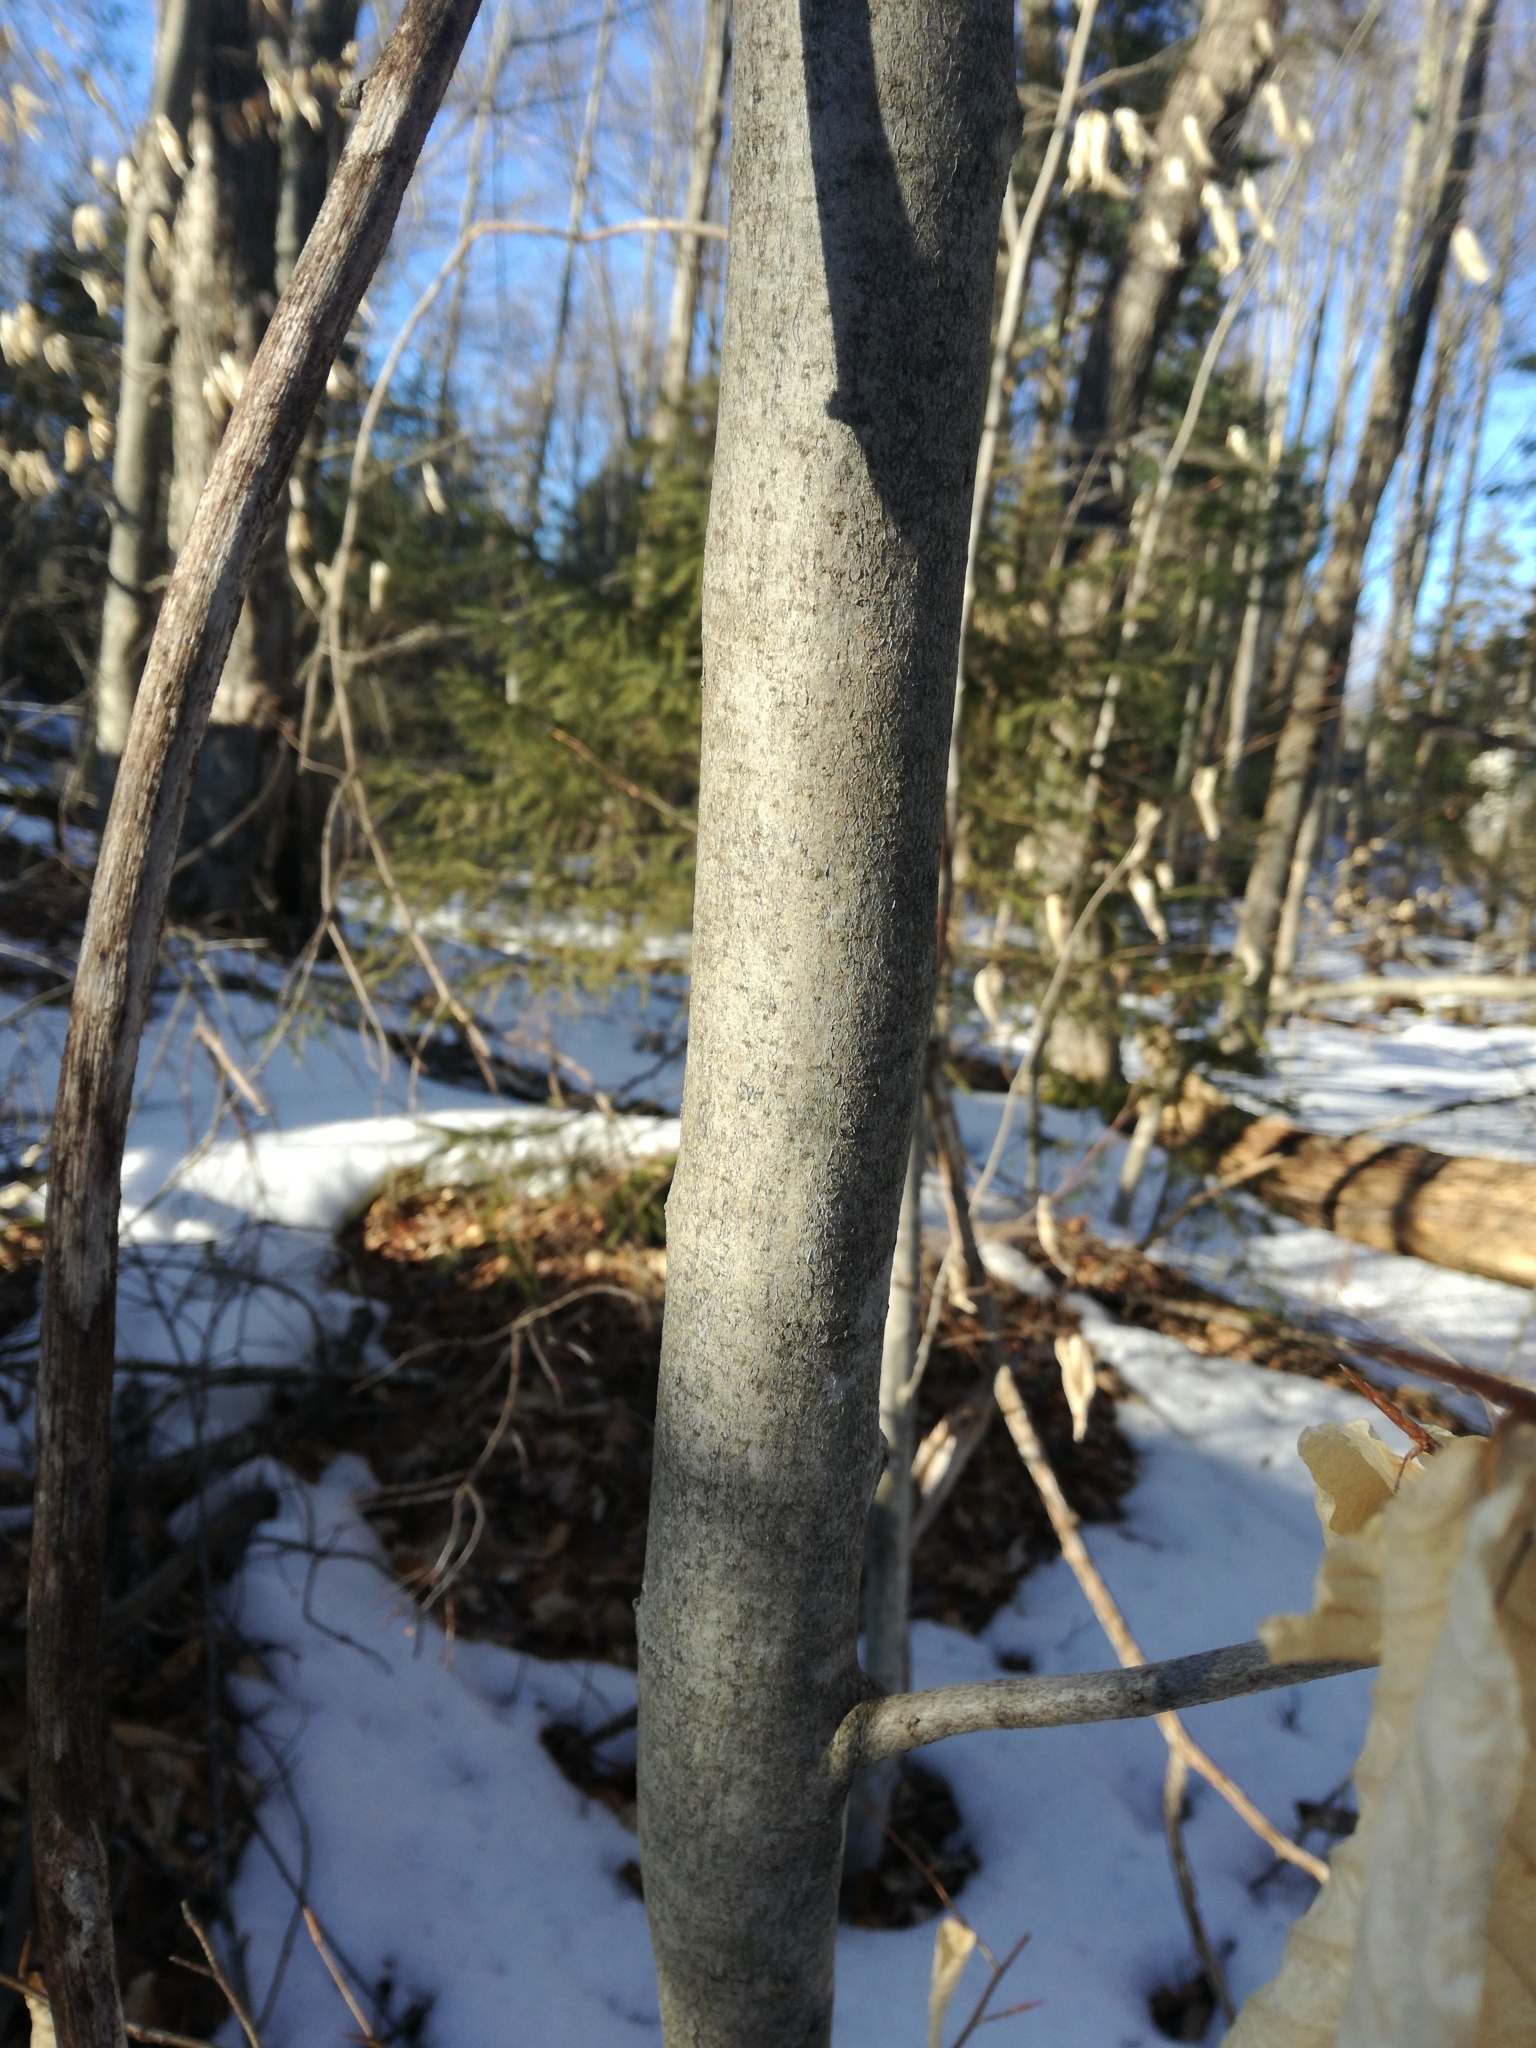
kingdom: Plantae
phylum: Tracheophyta
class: Magnoliopsida
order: Fagales
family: Fagaceae
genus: Fagus
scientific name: Fagus grandifolia
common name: American beech
